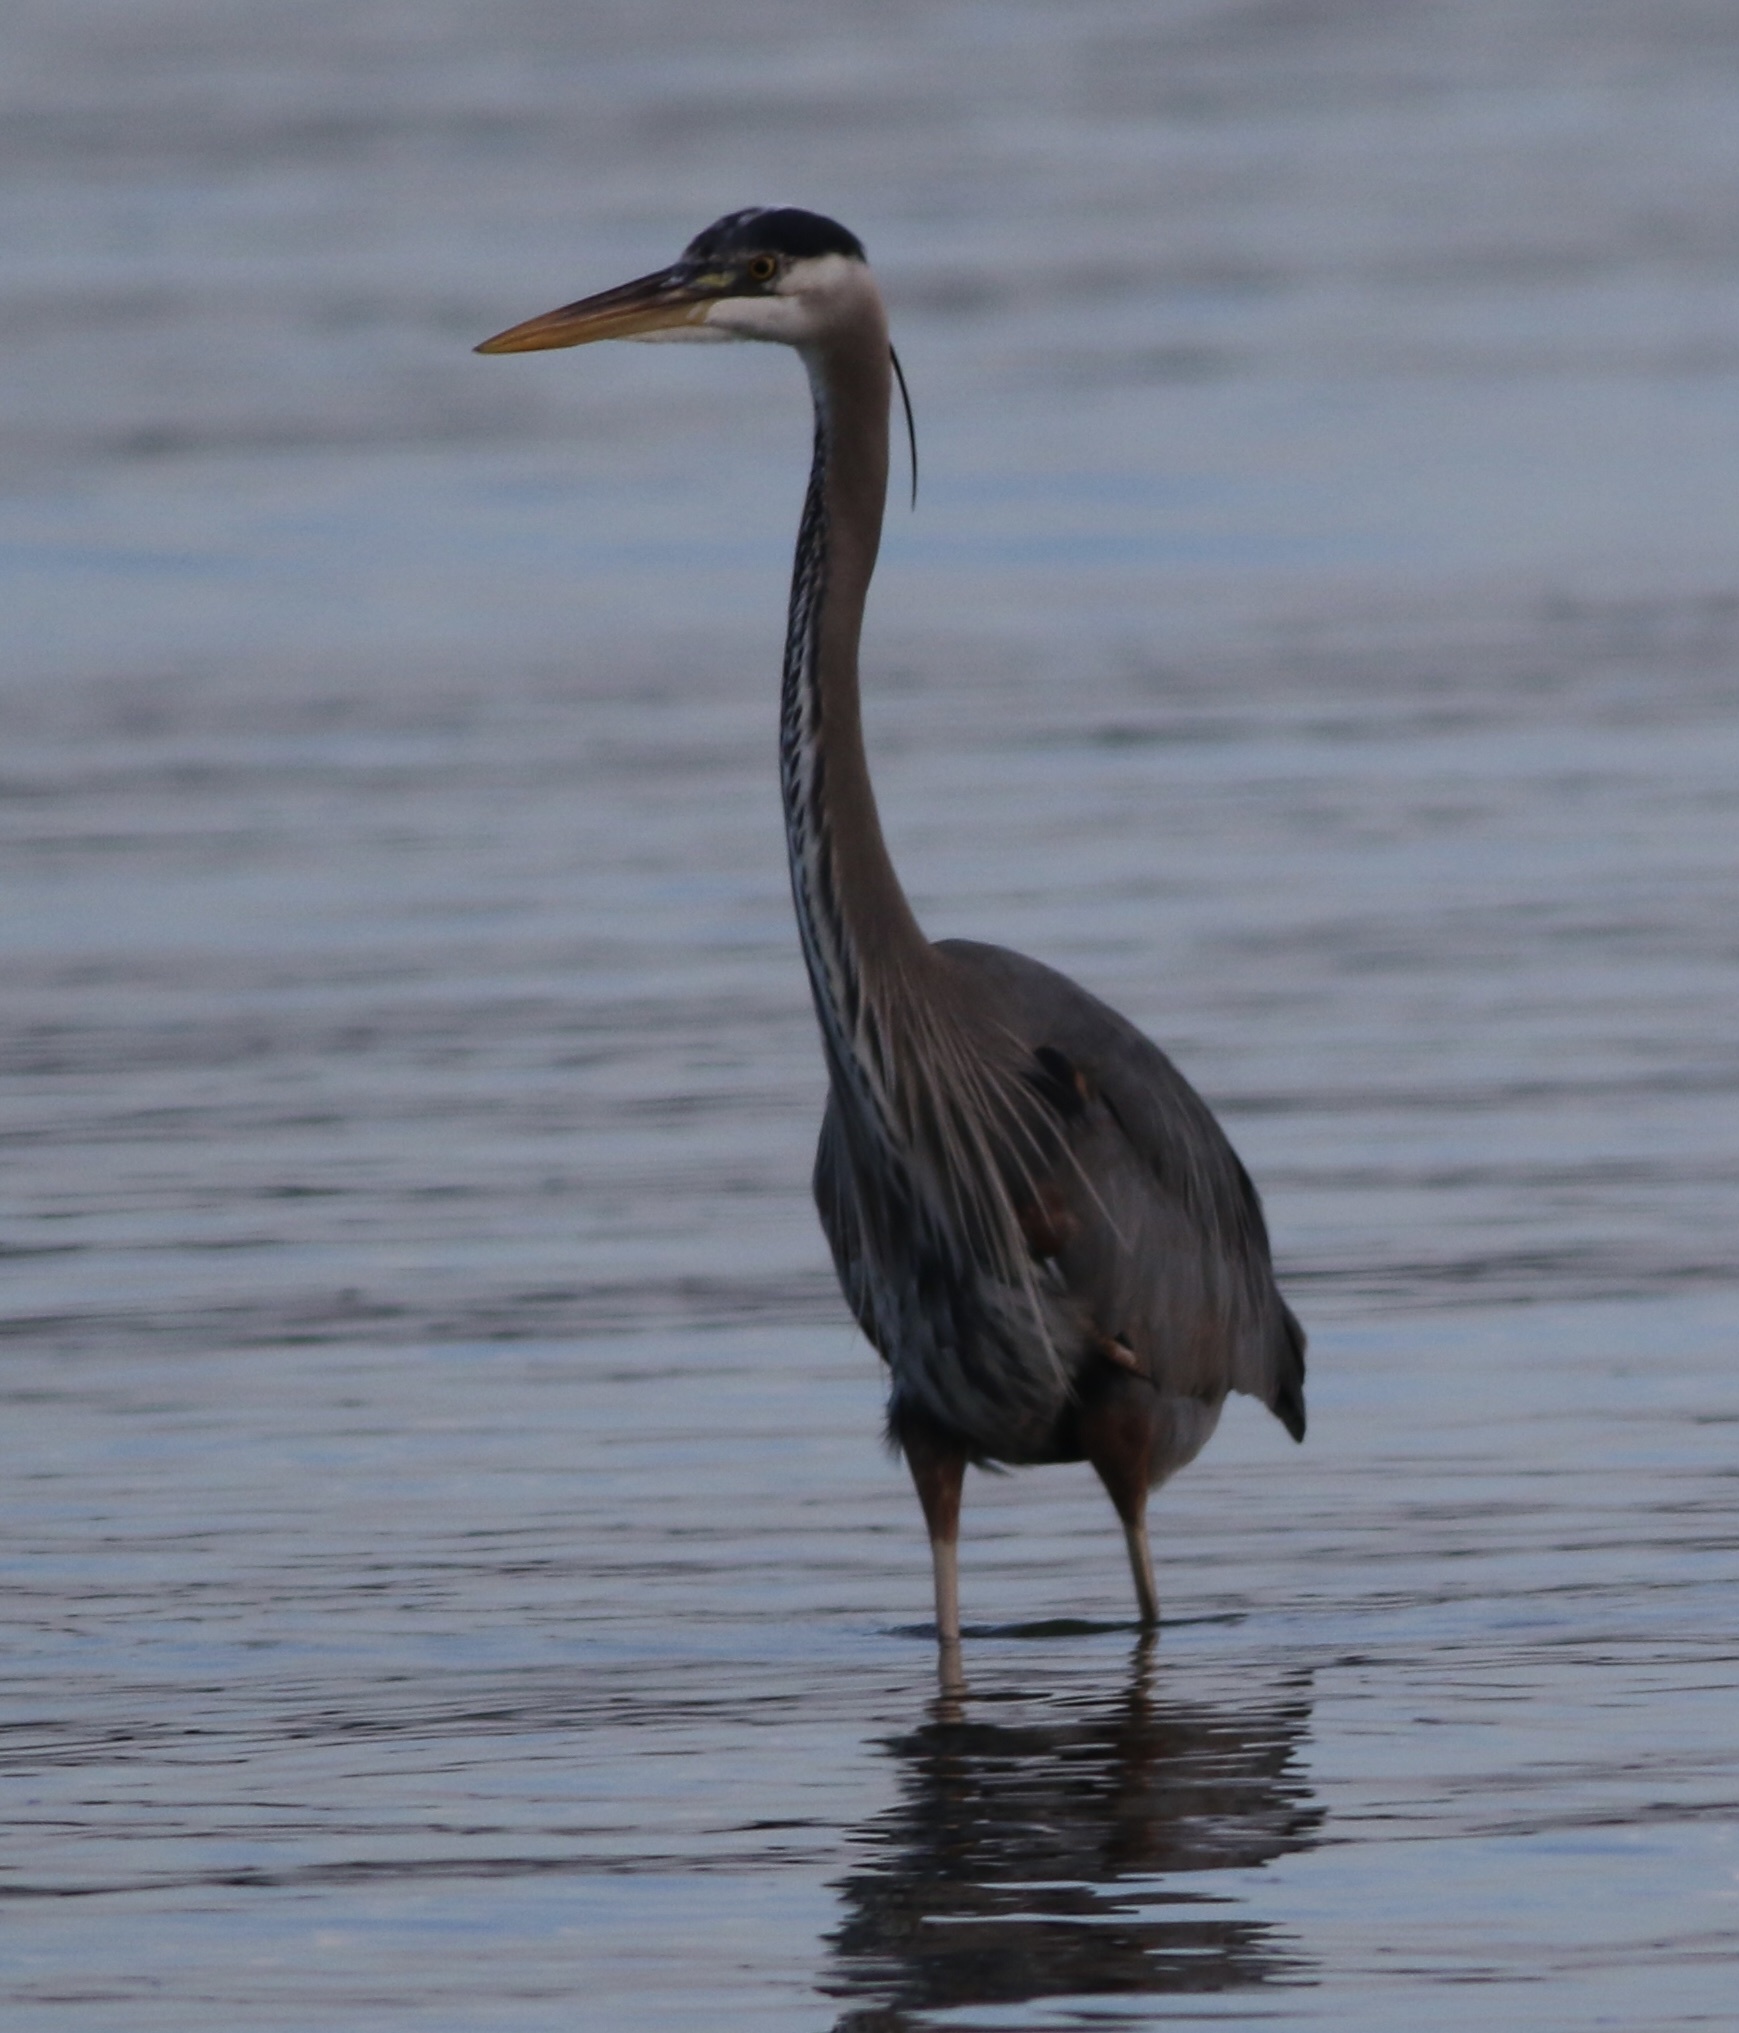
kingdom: Animalia
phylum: Chordata
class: Aves
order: Pelecaniformes
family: Ardeidae
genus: Ardea
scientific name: Ardea herodias
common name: Great blue heron
